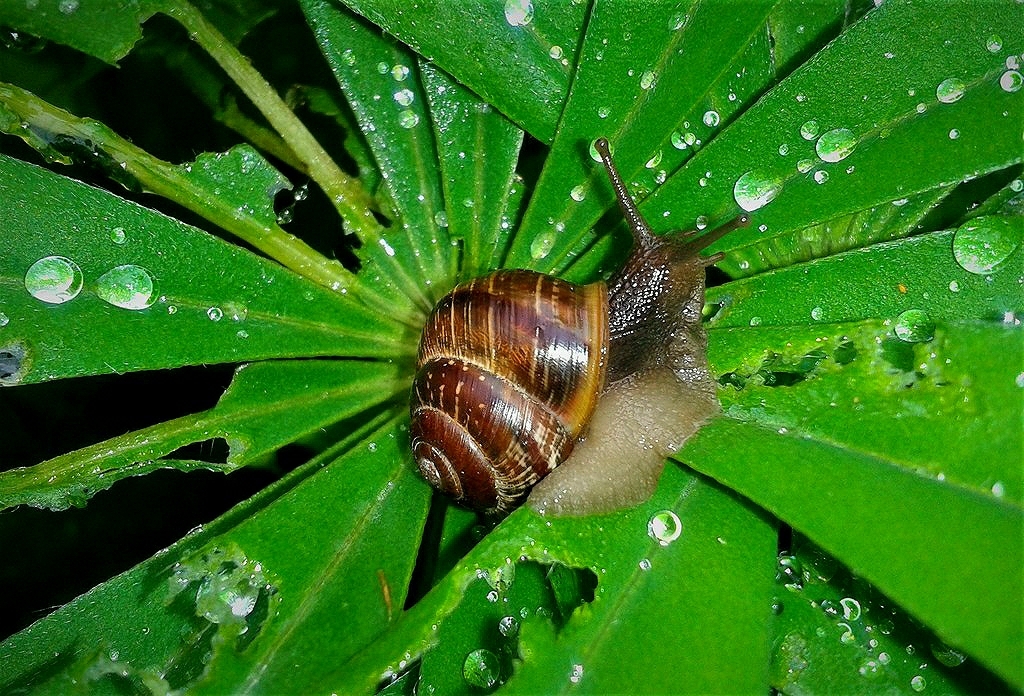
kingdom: Animalia
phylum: Mollusca
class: Gastropoda
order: Stylommatophora
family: Helicidae
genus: Arianta
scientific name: Arianta arbustorum
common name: Copse snail
